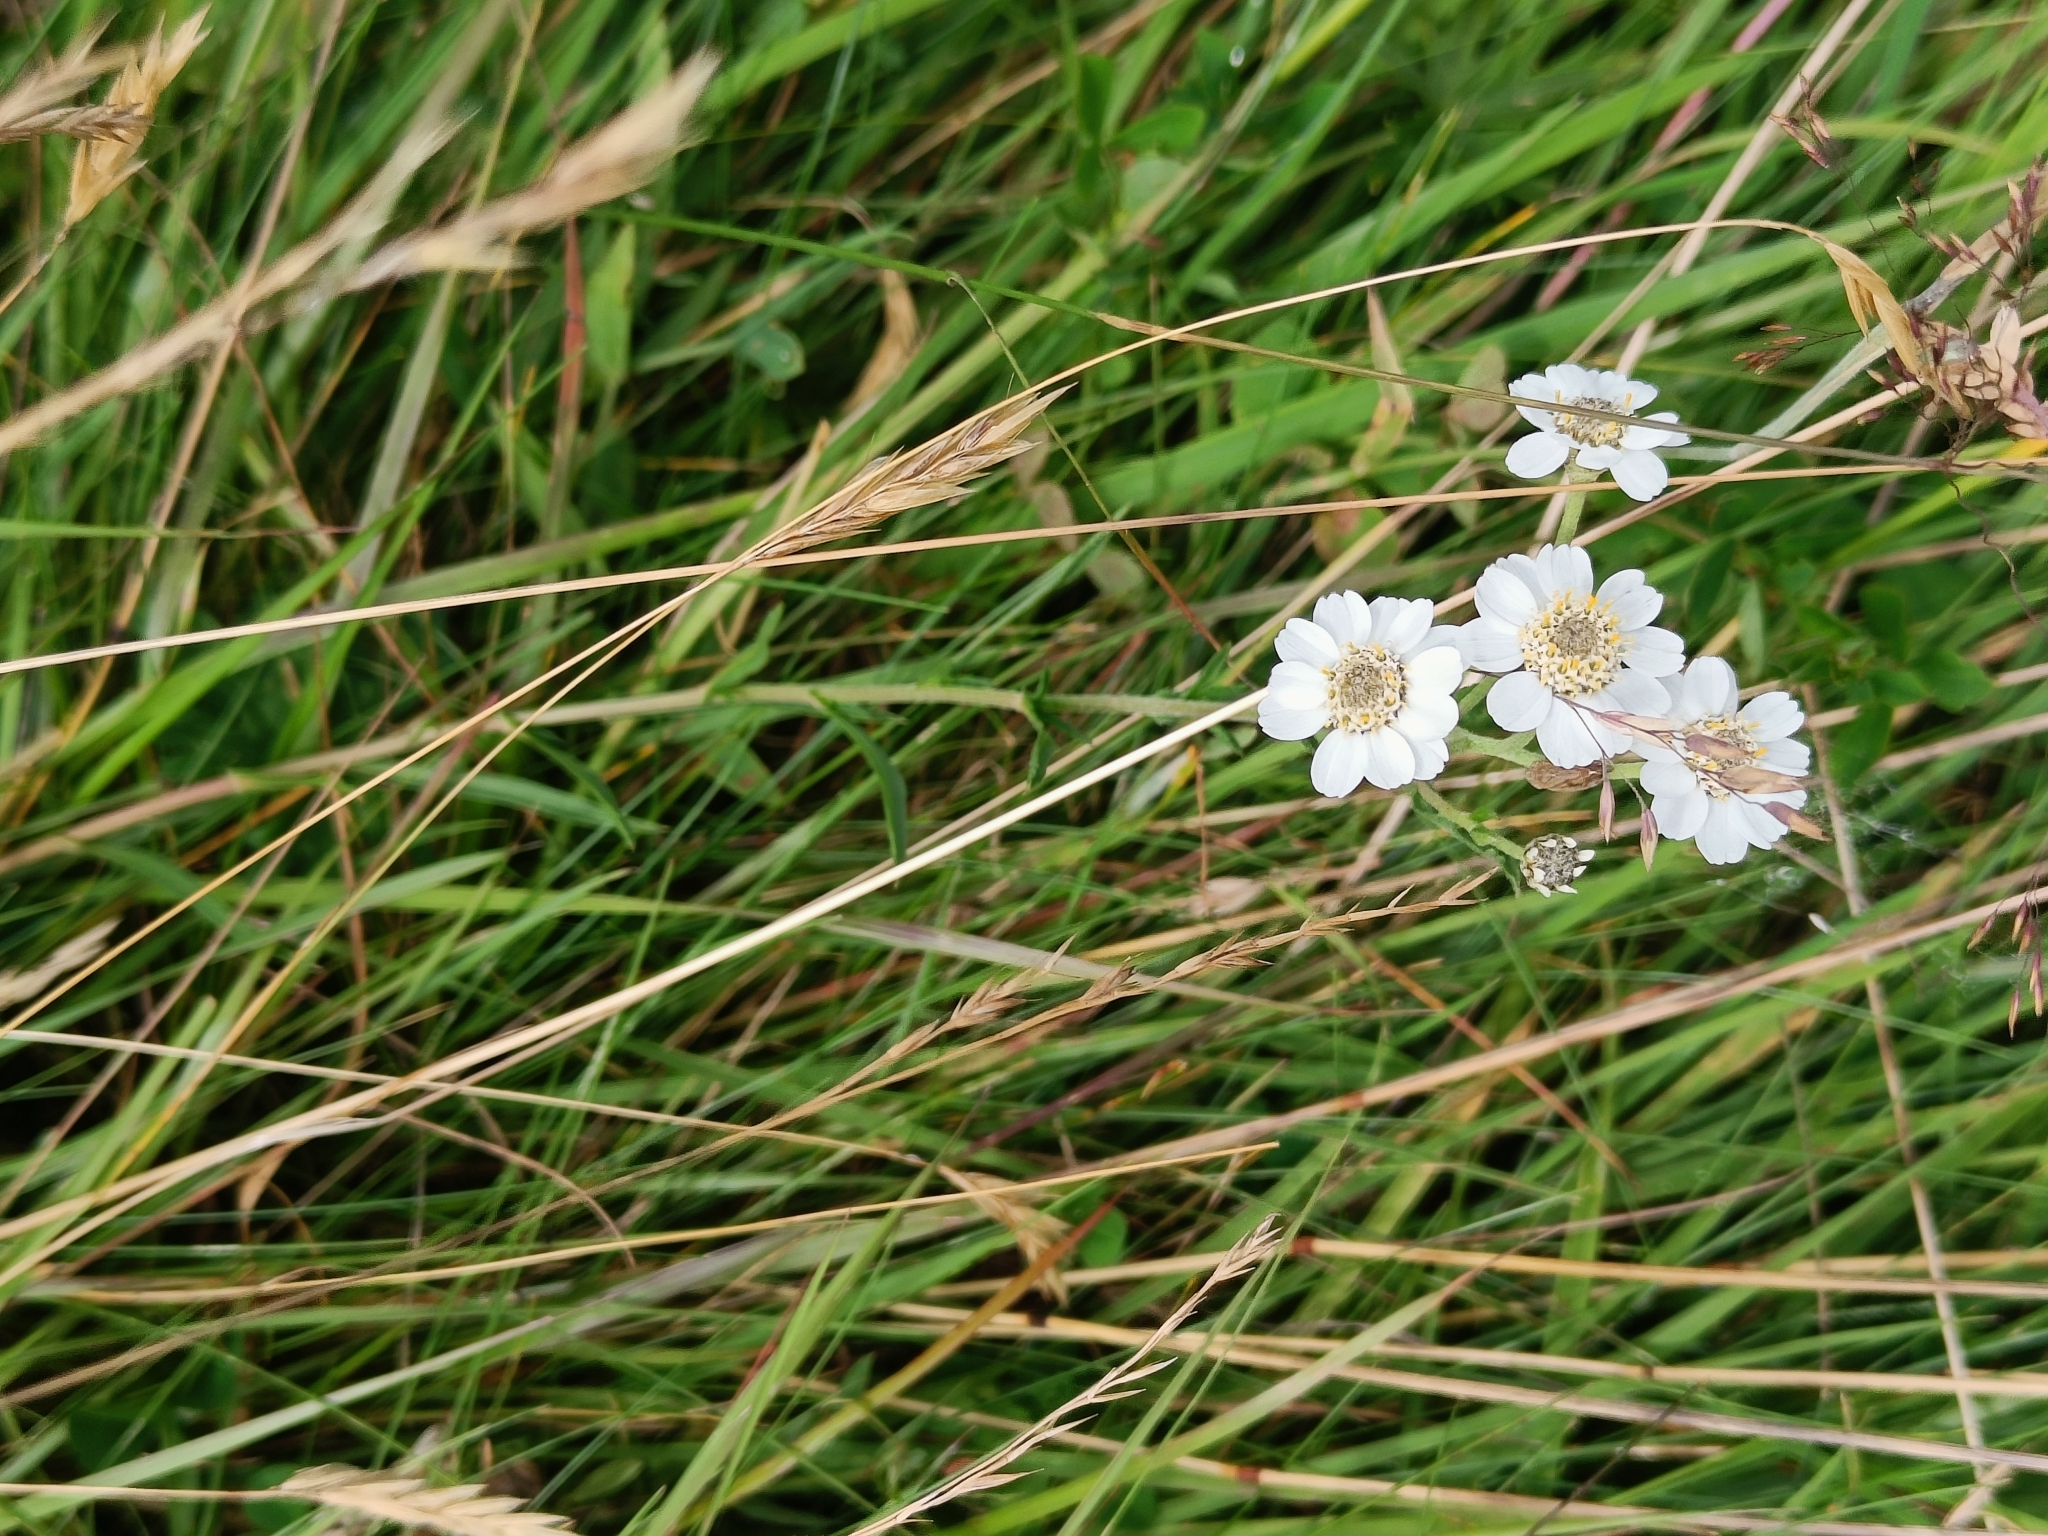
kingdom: Plantae
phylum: Tracheophyta
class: Magnoliopsida
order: Asterales
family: Asteraceae
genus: Achillea
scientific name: Achillea ptarmica
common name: Sneezeweed
